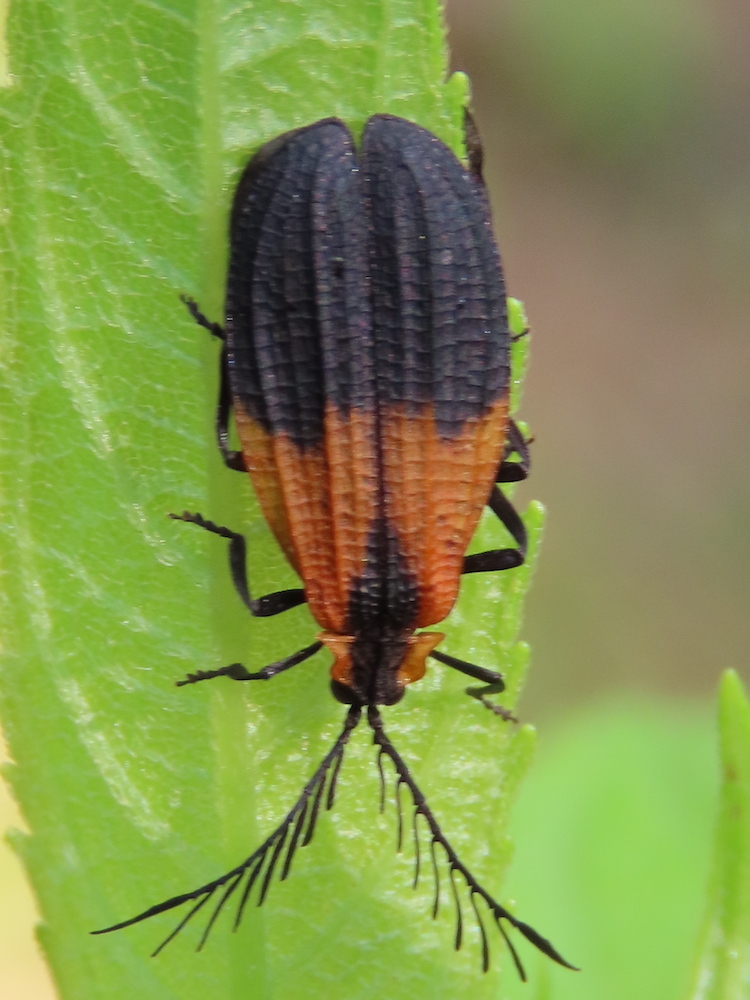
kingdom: Animalia
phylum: Arthropoda
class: Insecta
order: Coleoptera
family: Lycidae
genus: Caenia
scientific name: Caenia dimidiata
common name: Terminal net-winged beetle
